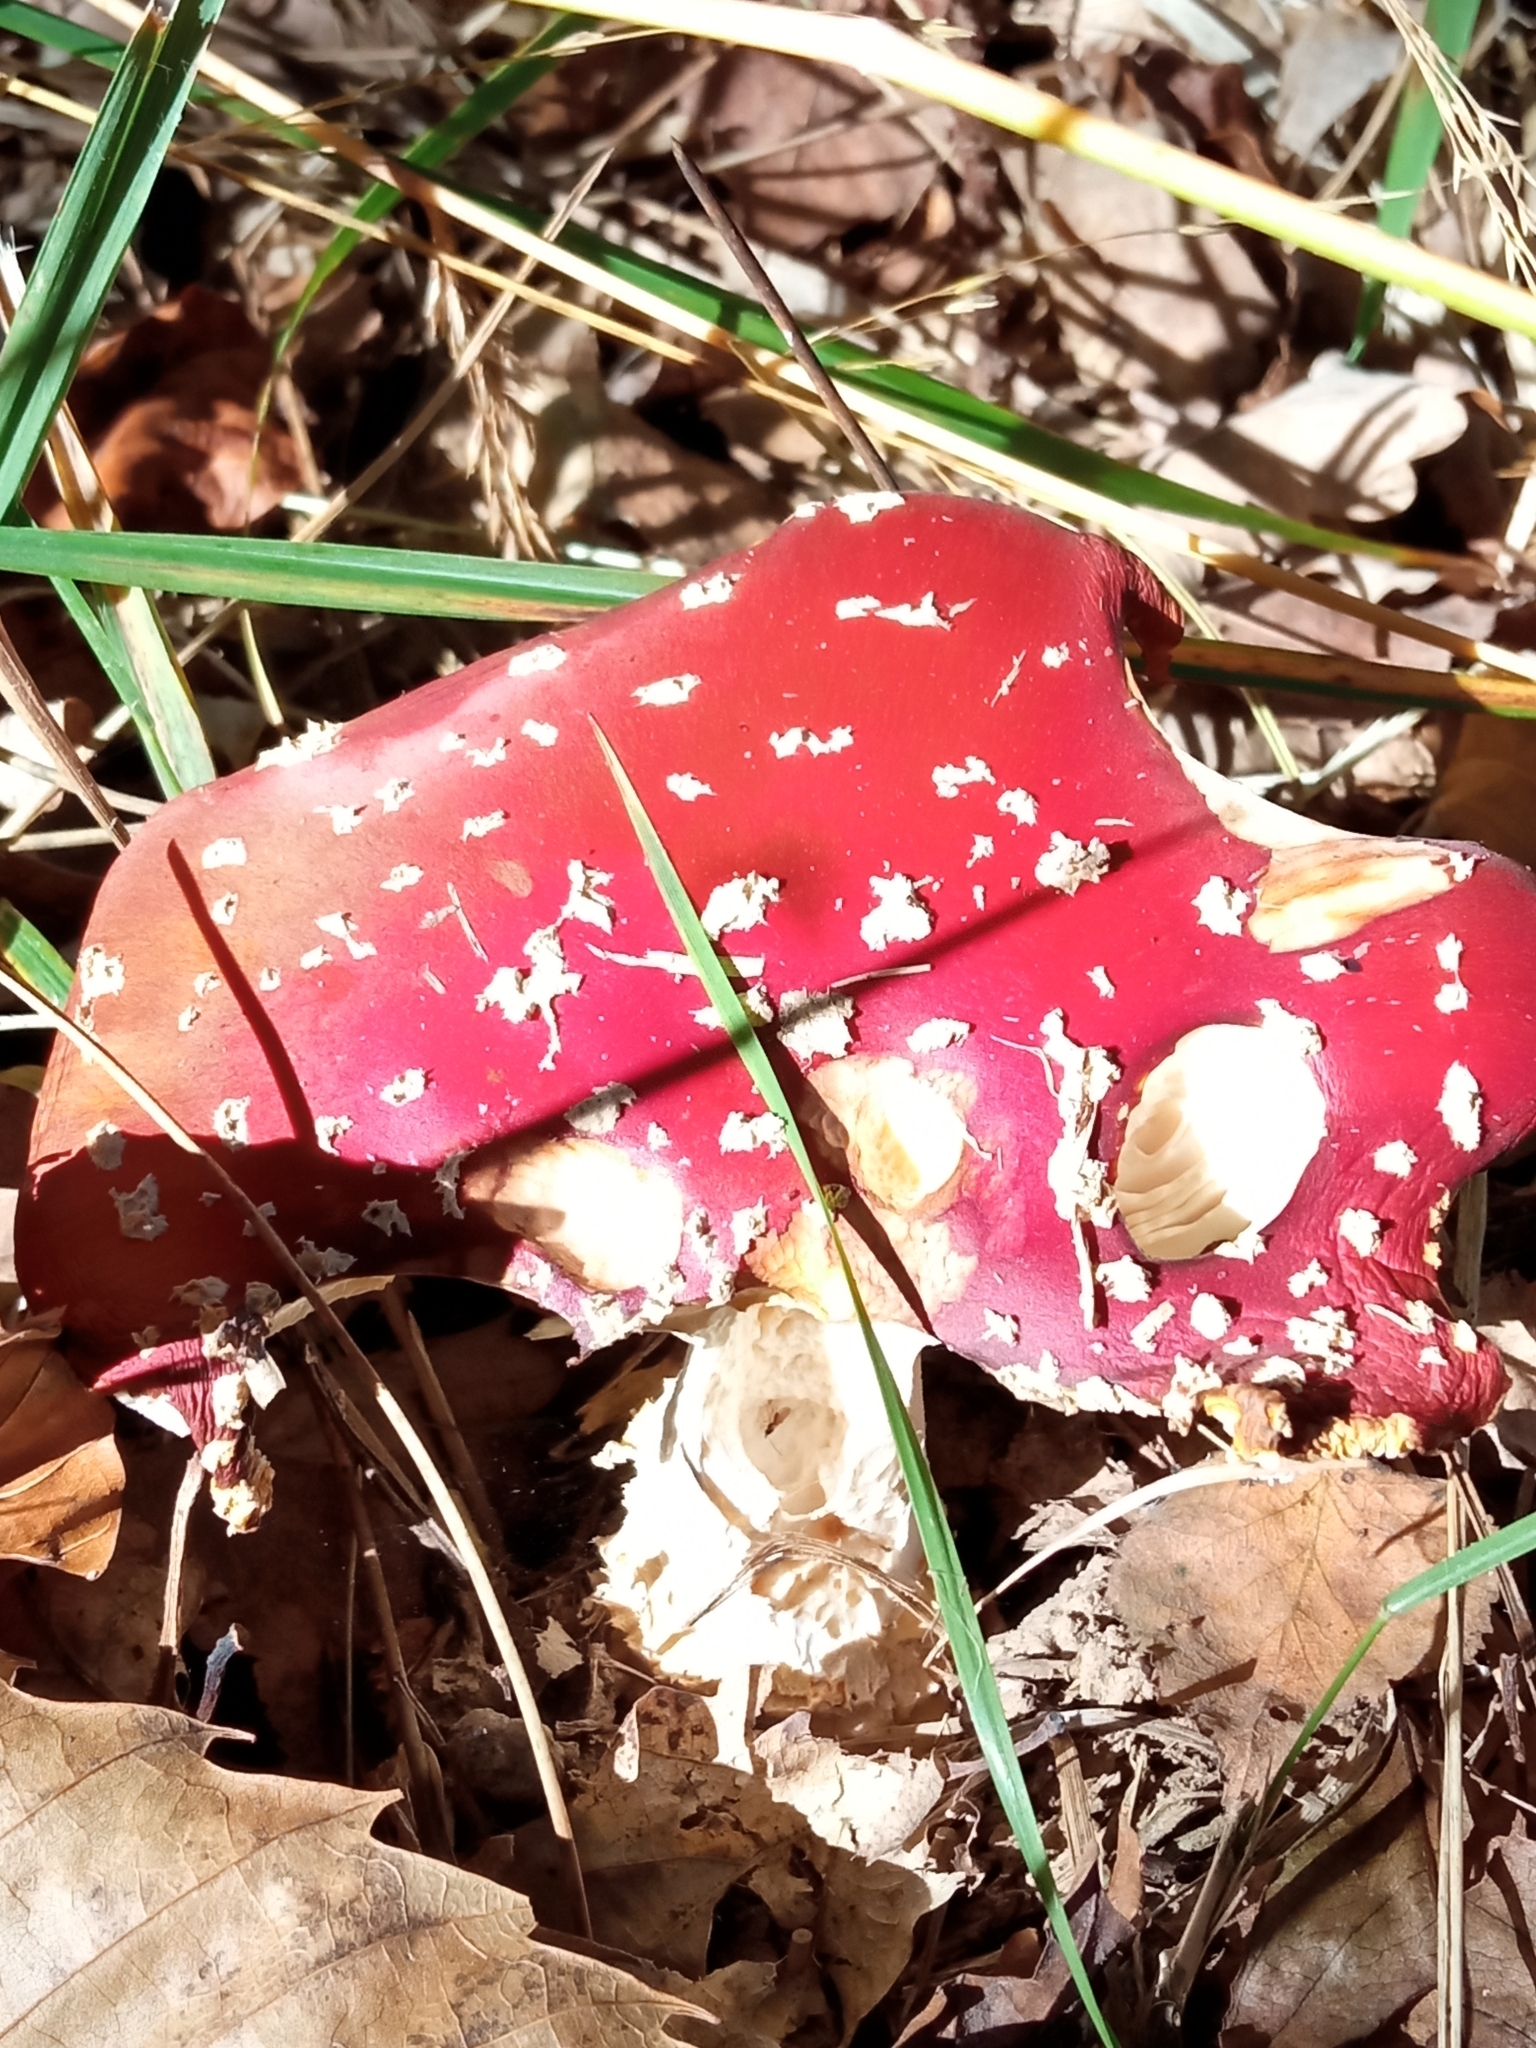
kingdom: Fungi
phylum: Basidiomycota
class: Agaricomycetes
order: Agaricales
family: Amanitaceae
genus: Amanita
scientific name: Amanita muscaria
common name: Fly agaric
